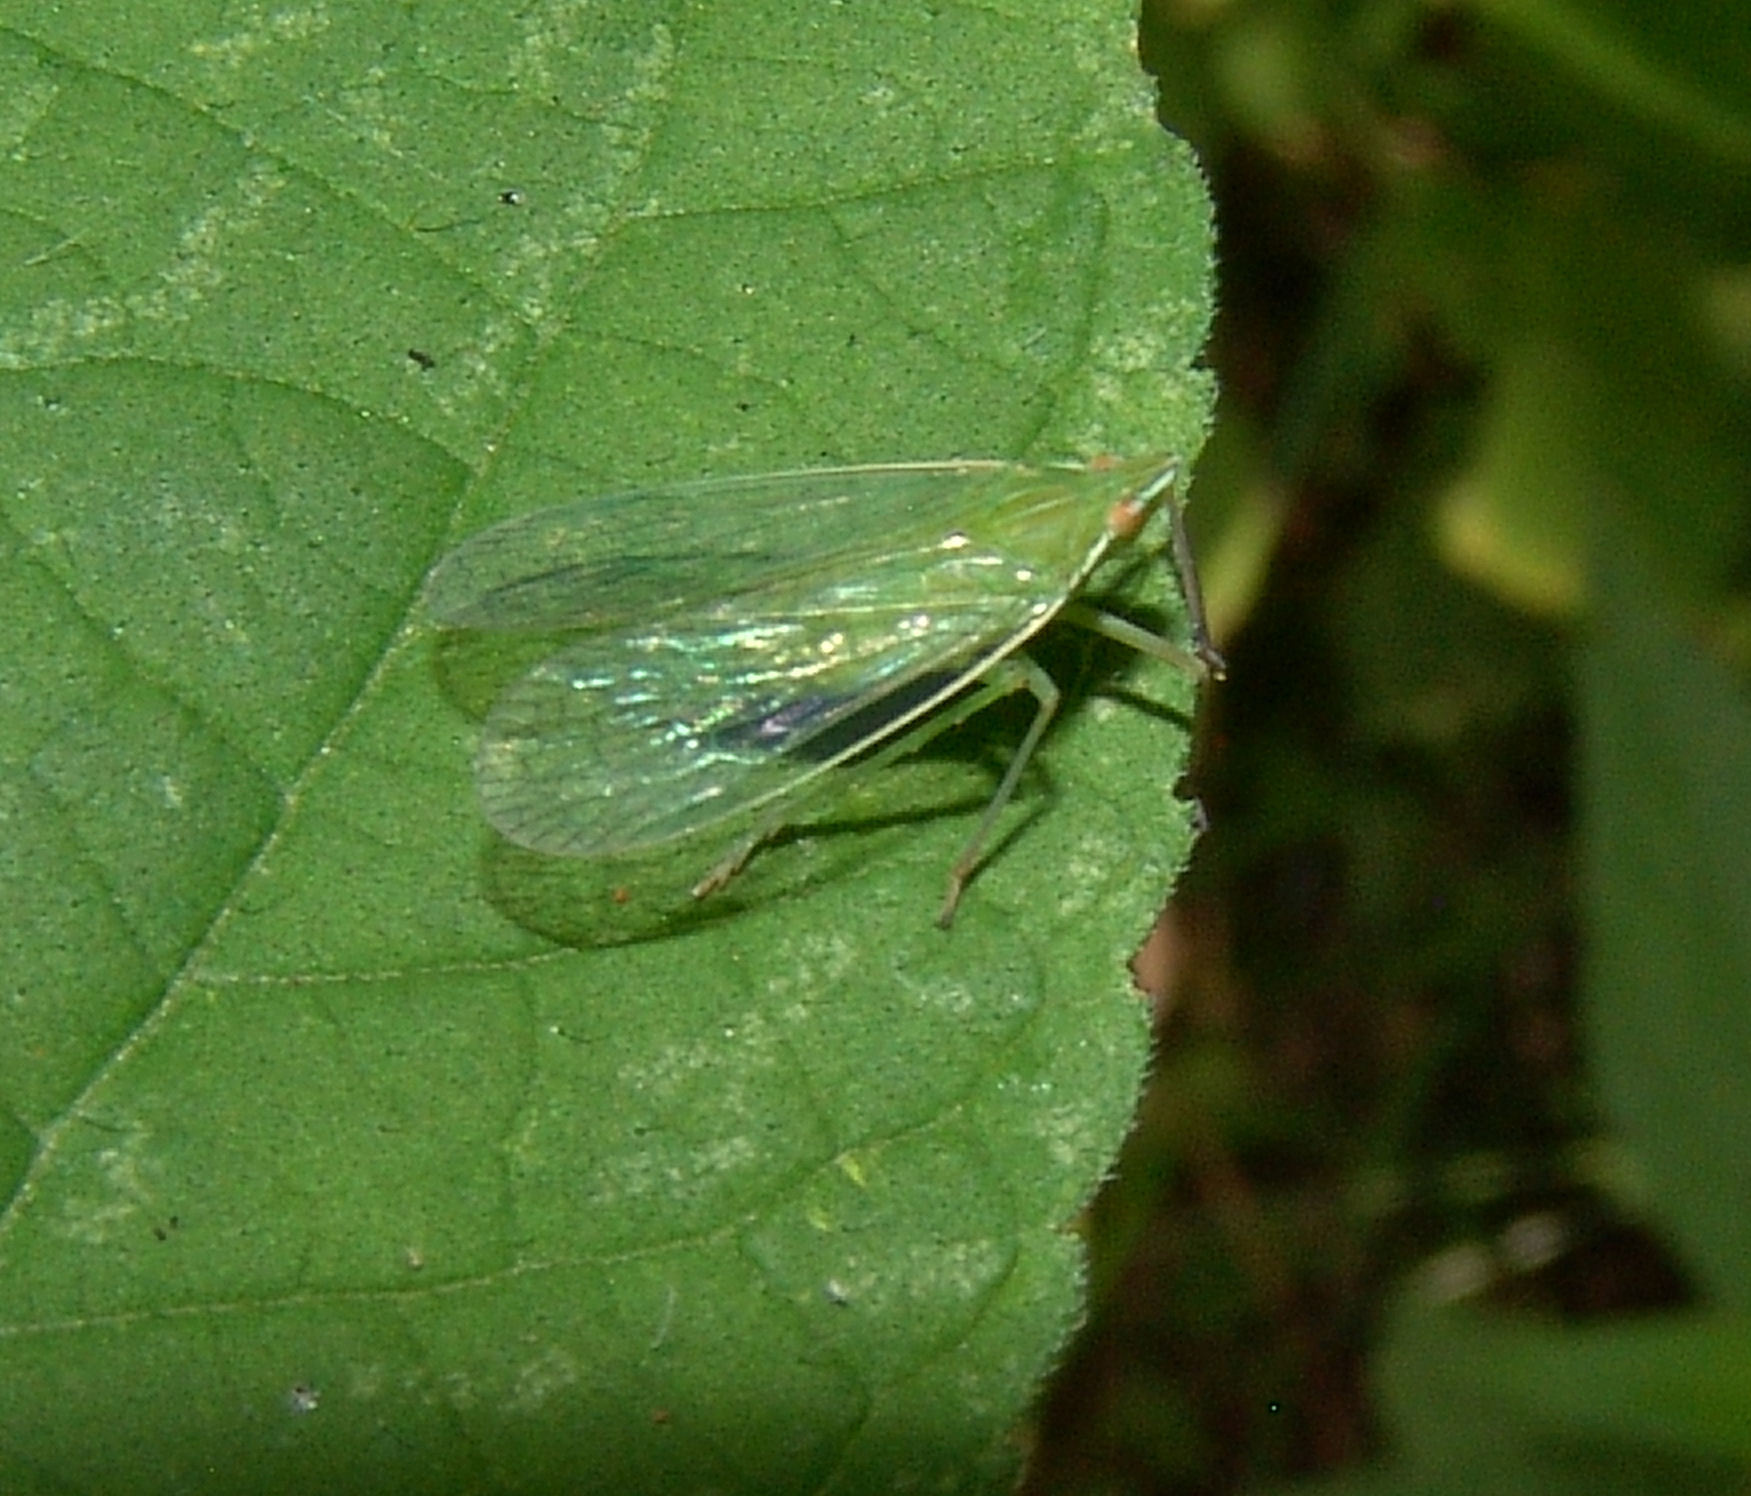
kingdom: Animalia
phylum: Arthropoda
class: Insecta
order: Hemiptera
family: Dictyopharidae
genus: Nersia
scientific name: Nersia florida
